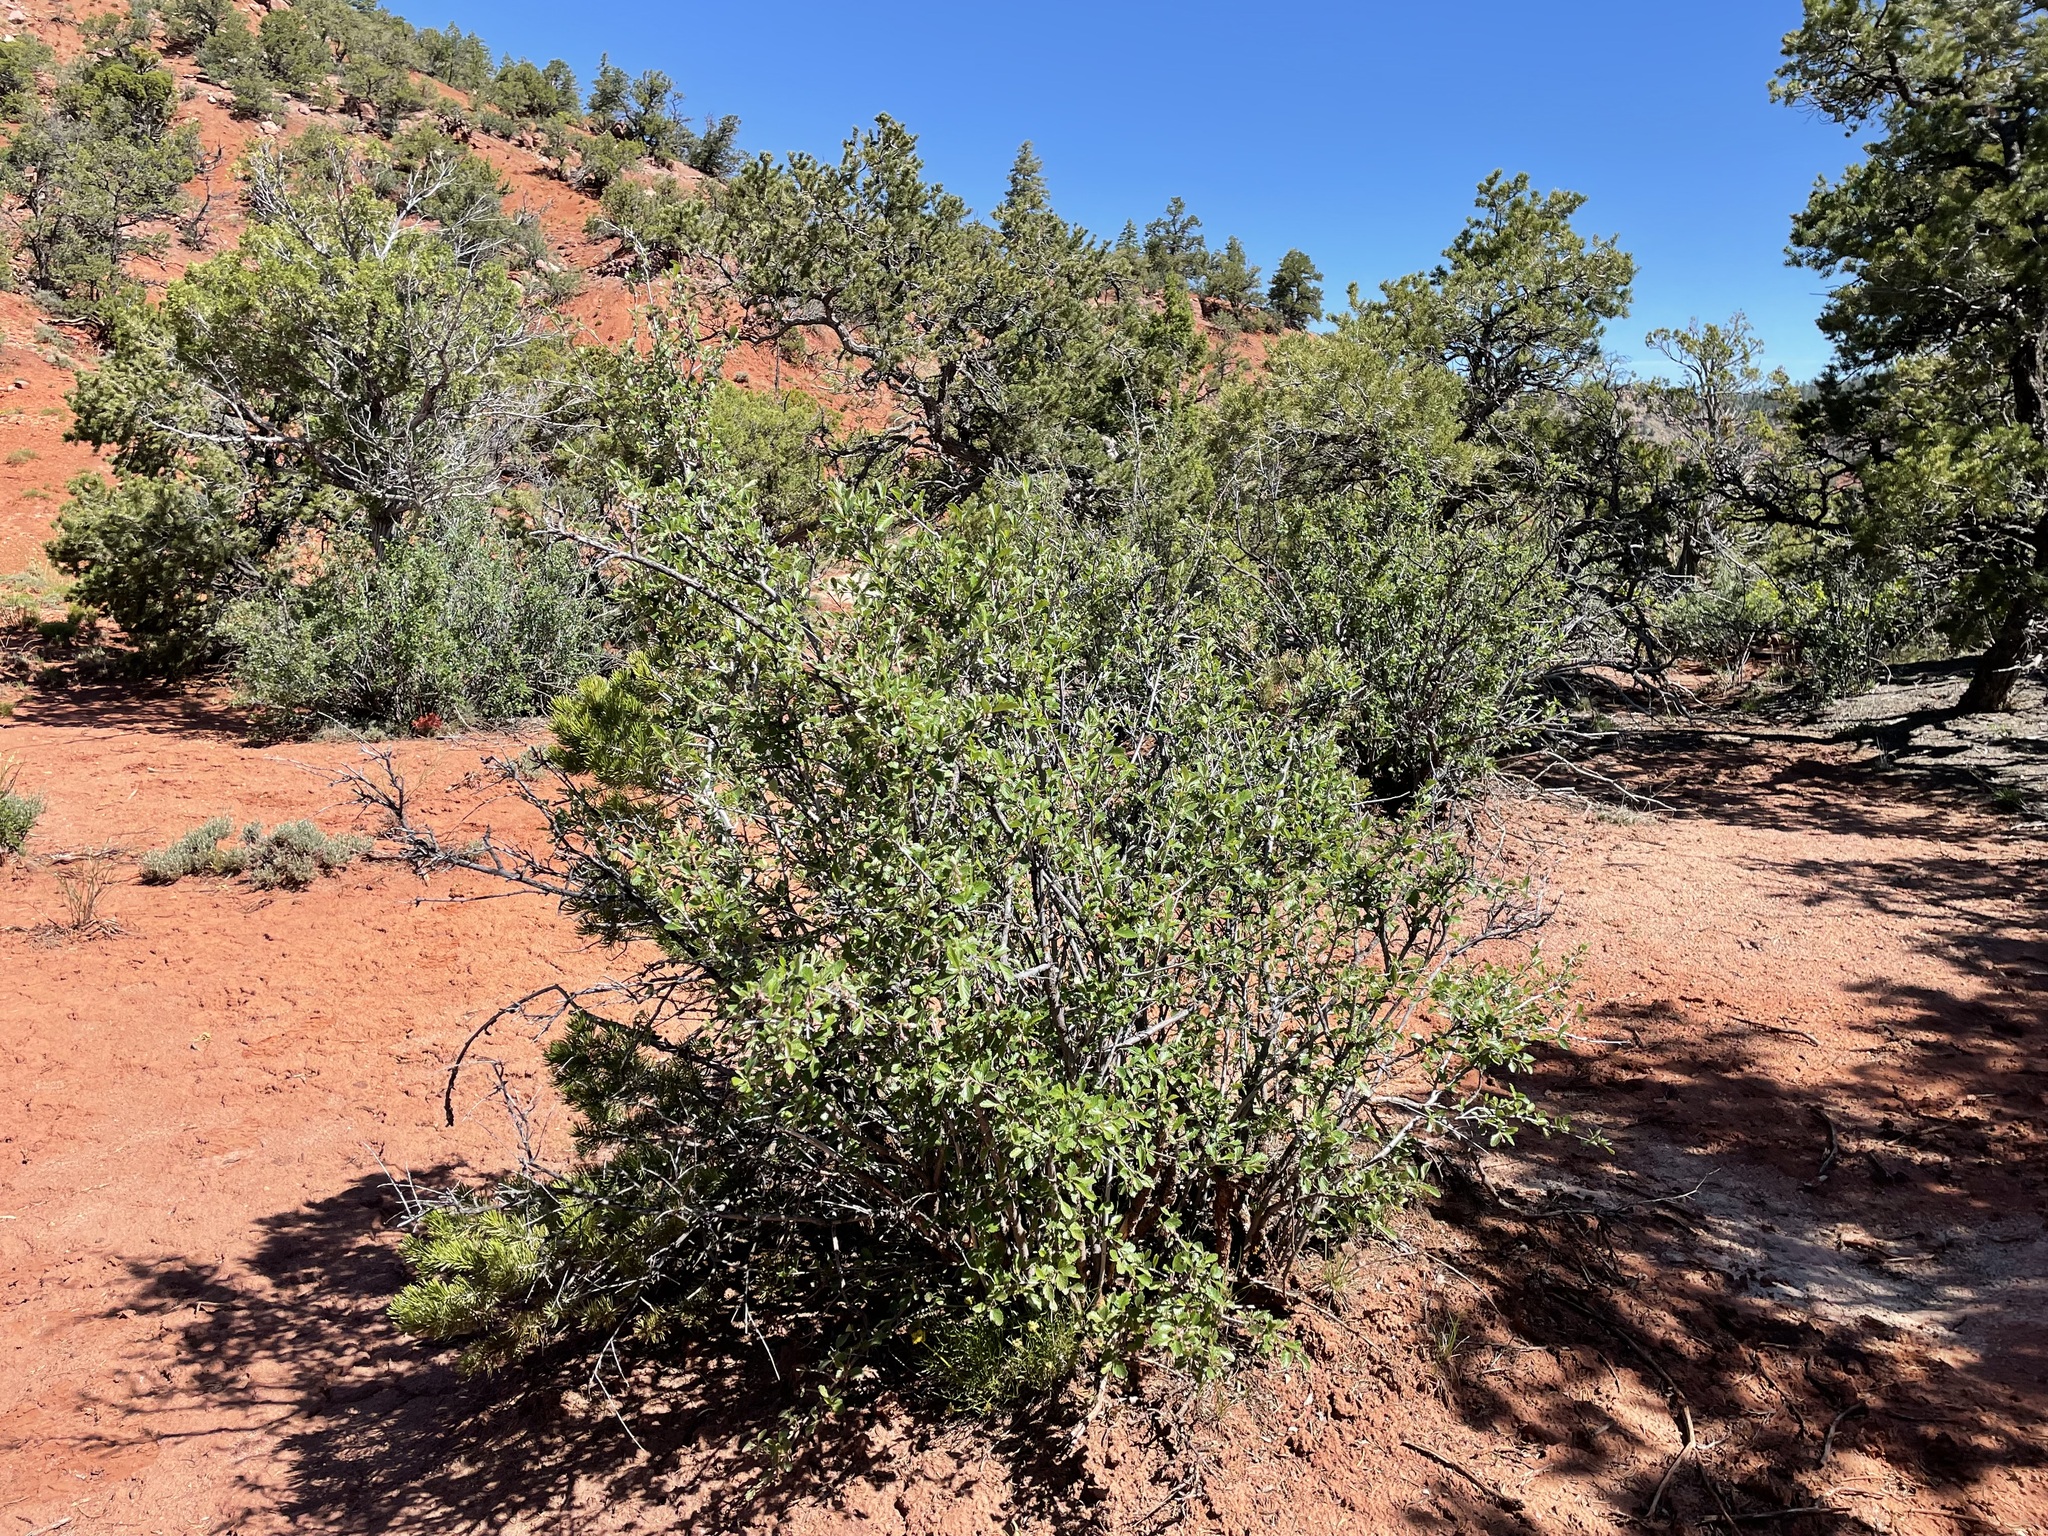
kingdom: Plantae
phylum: Tracheophyta
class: Magnoliopsida
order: Rosales
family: Rosaceae
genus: Cercocarpus
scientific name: Cercocarpus montanus
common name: Alder-leaf cercocarpus
